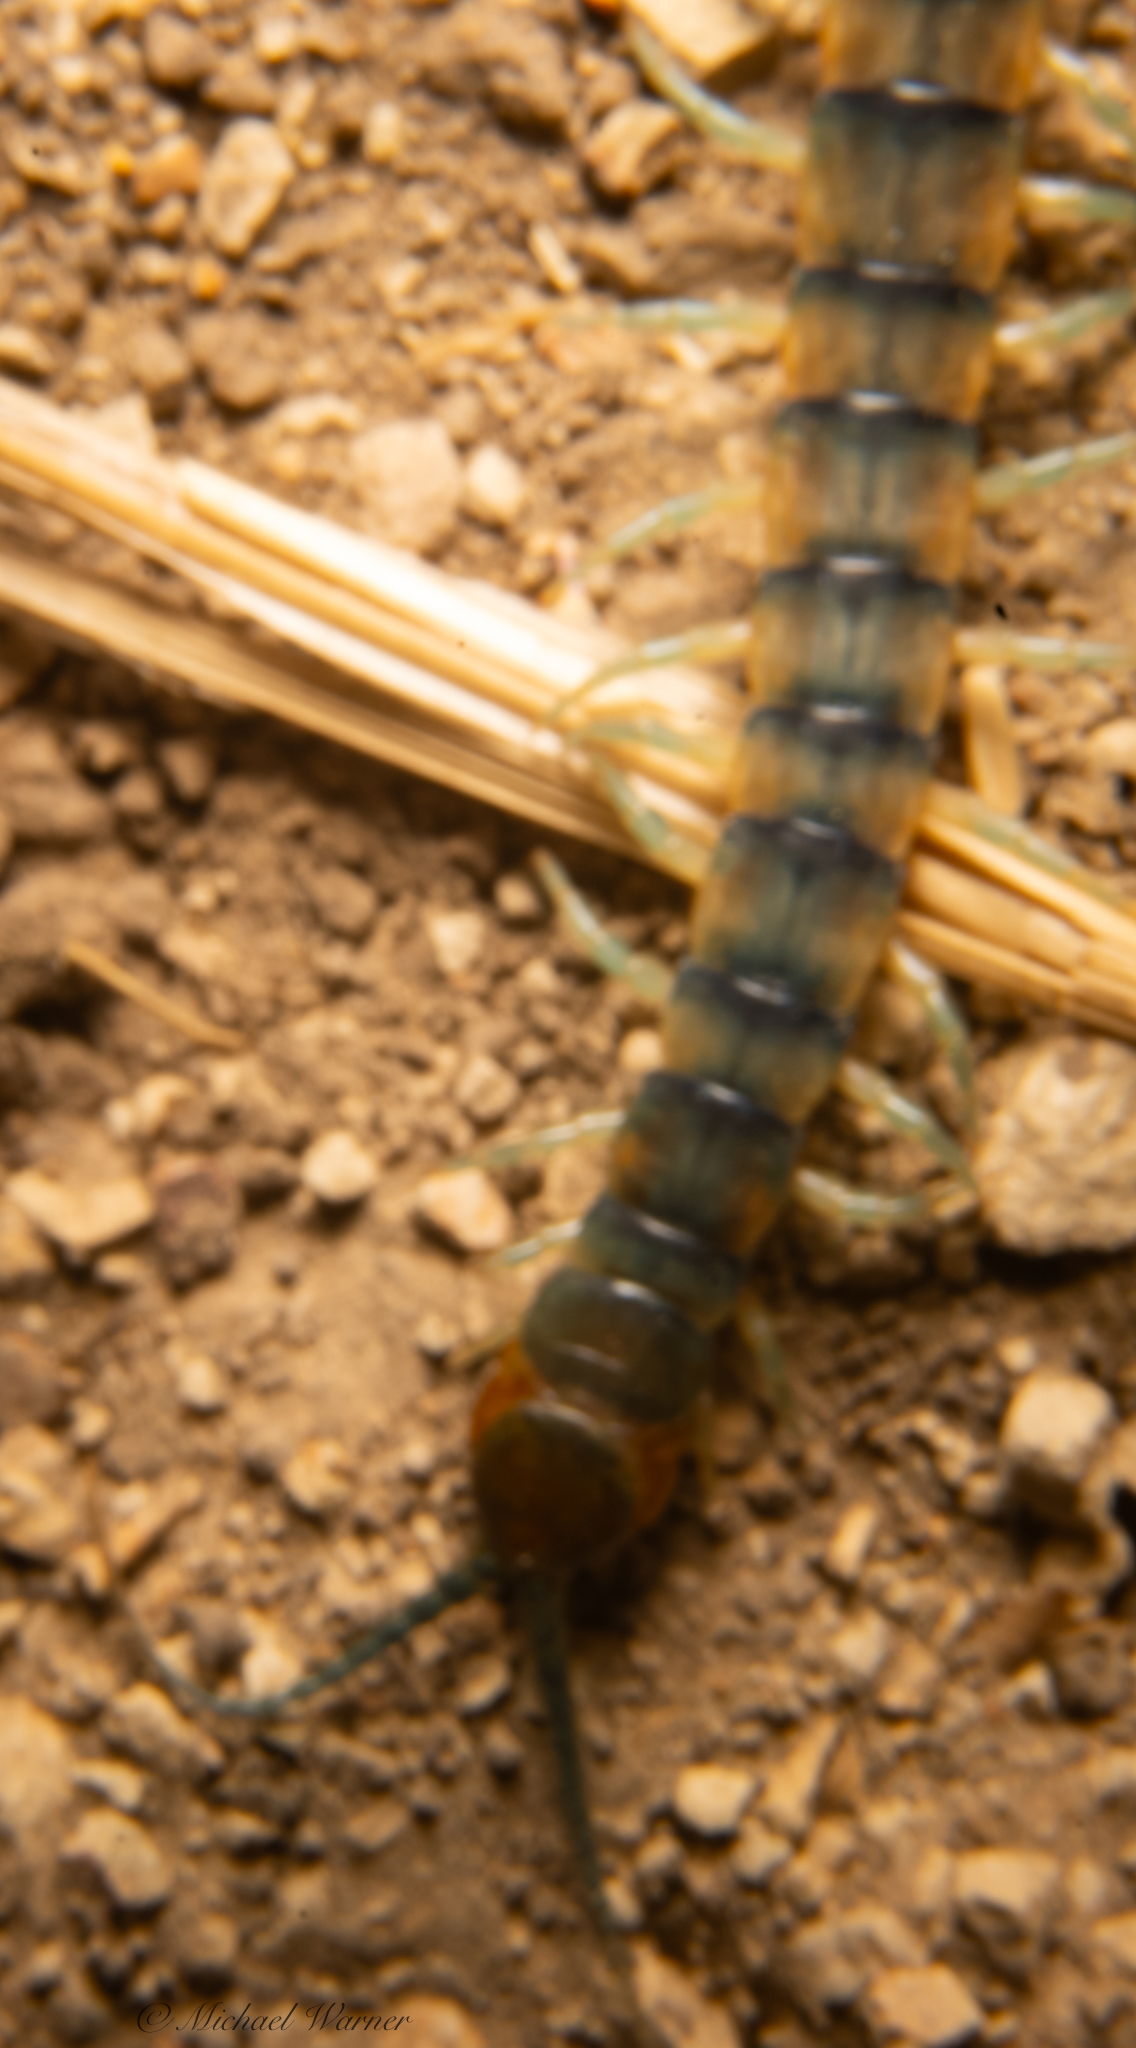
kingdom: Animalia
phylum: Arthropoda
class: Chilopoda
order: Scolopendromorpha
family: Scolopendridae
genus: Scolopendra
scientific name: Scolopendra polymorpha
